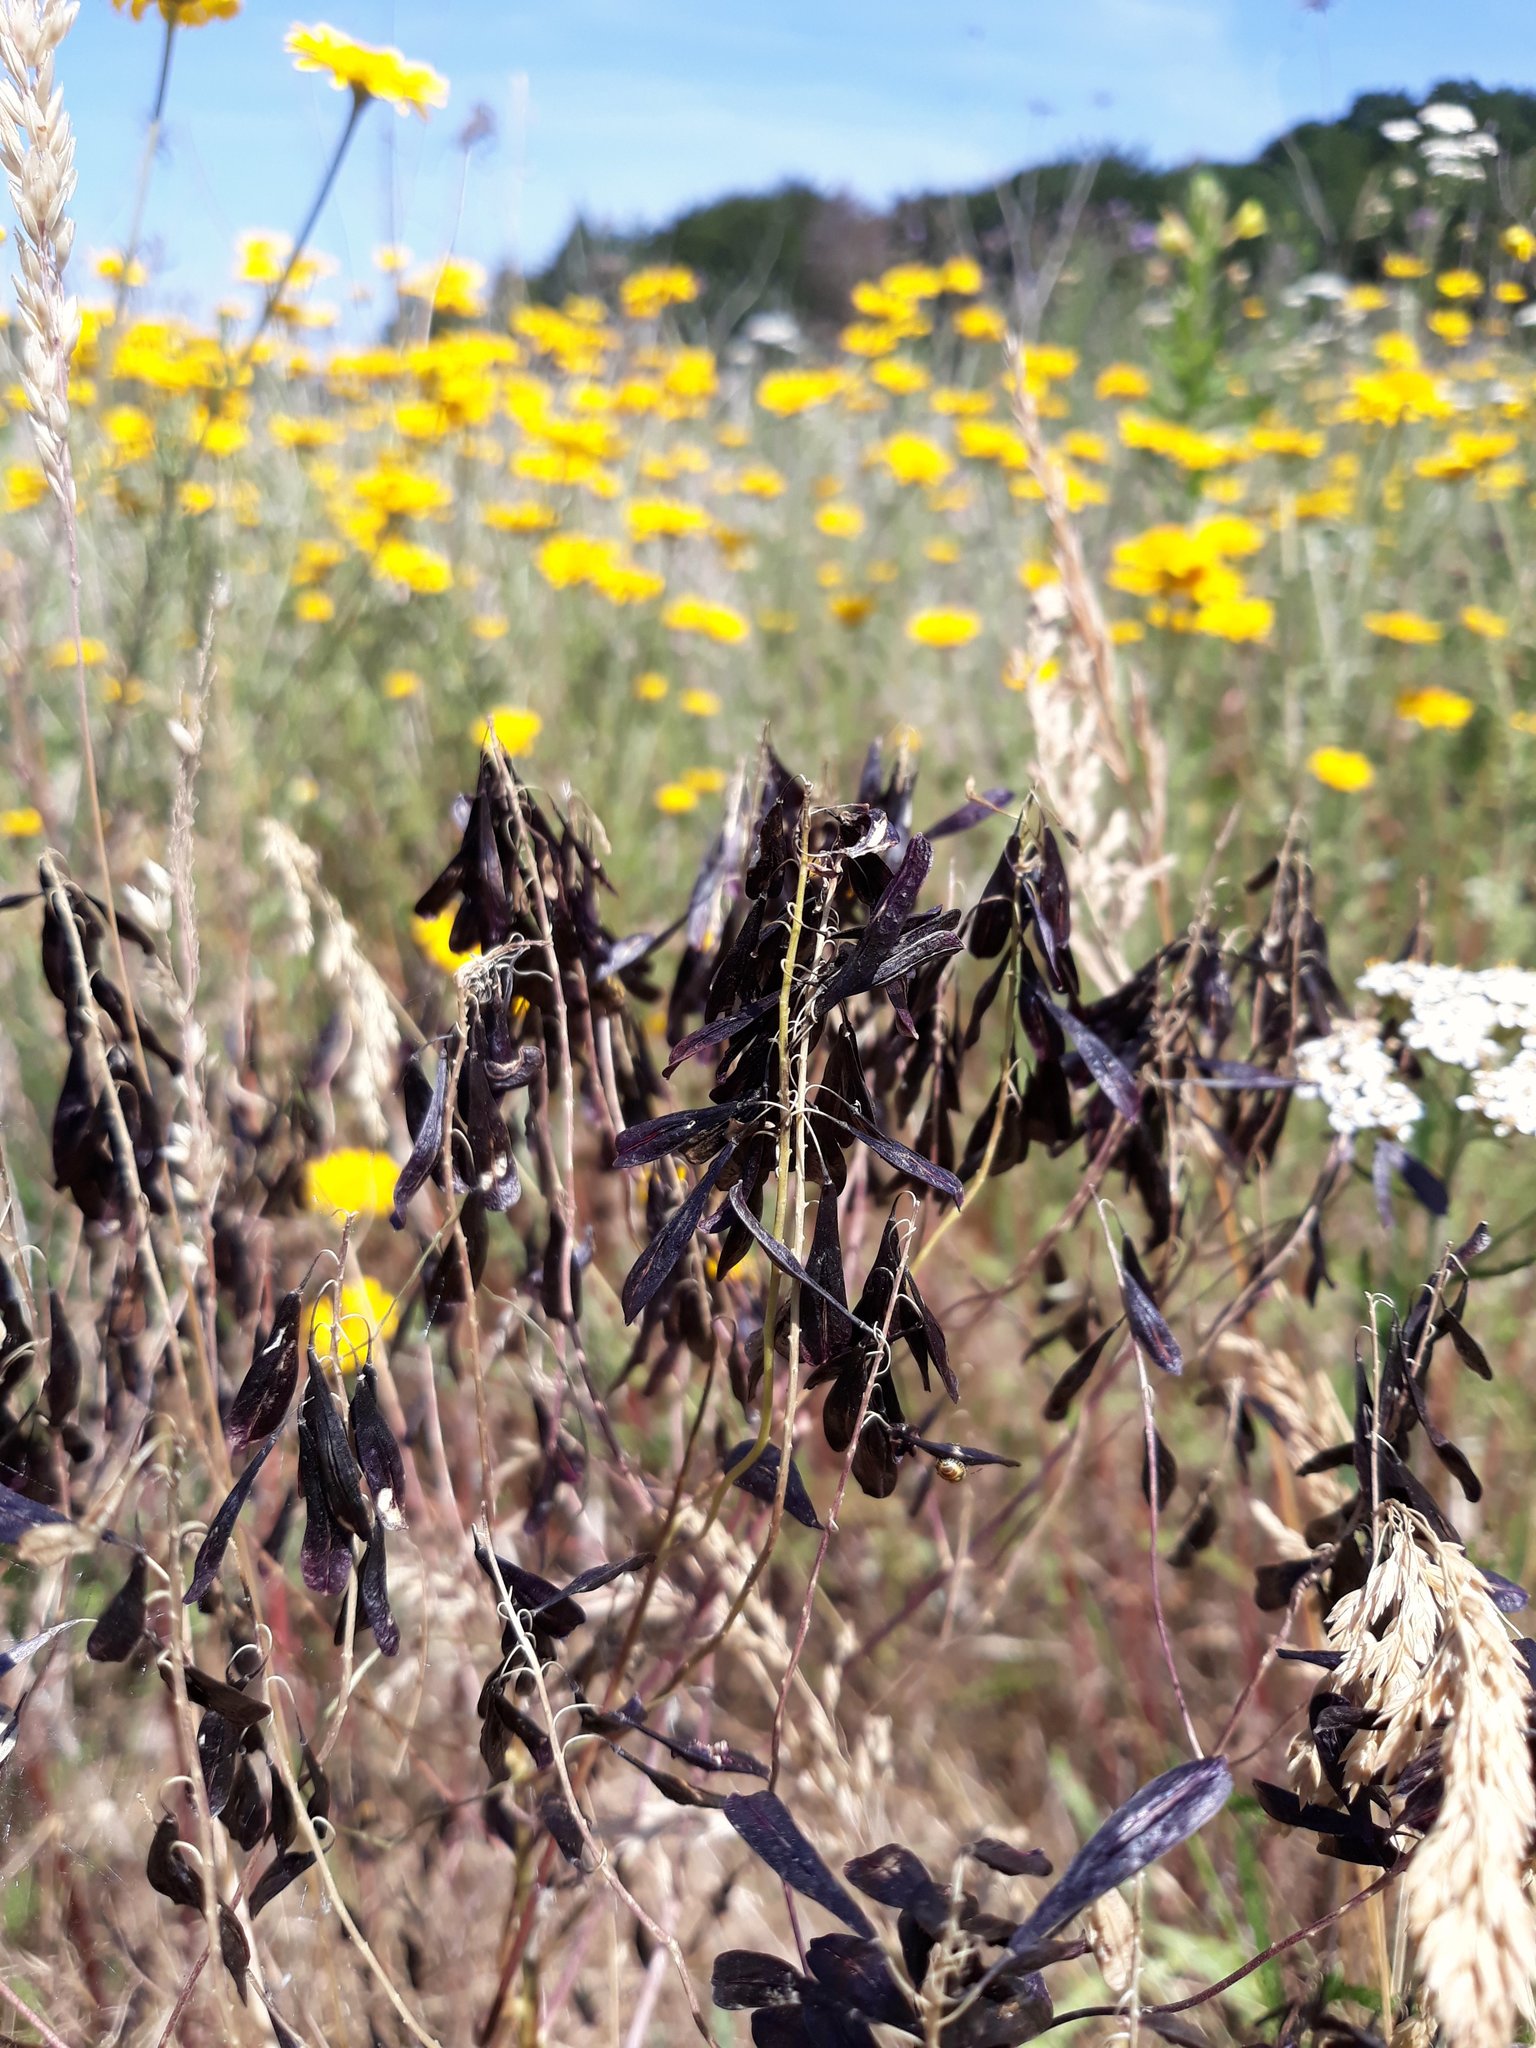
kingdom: Plantae
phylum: Tracheophyta
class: Magnoliopsida
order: Brassicales
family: Brassicaceae
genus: Isatis
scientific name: Isatis tinctoria
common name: Woad
